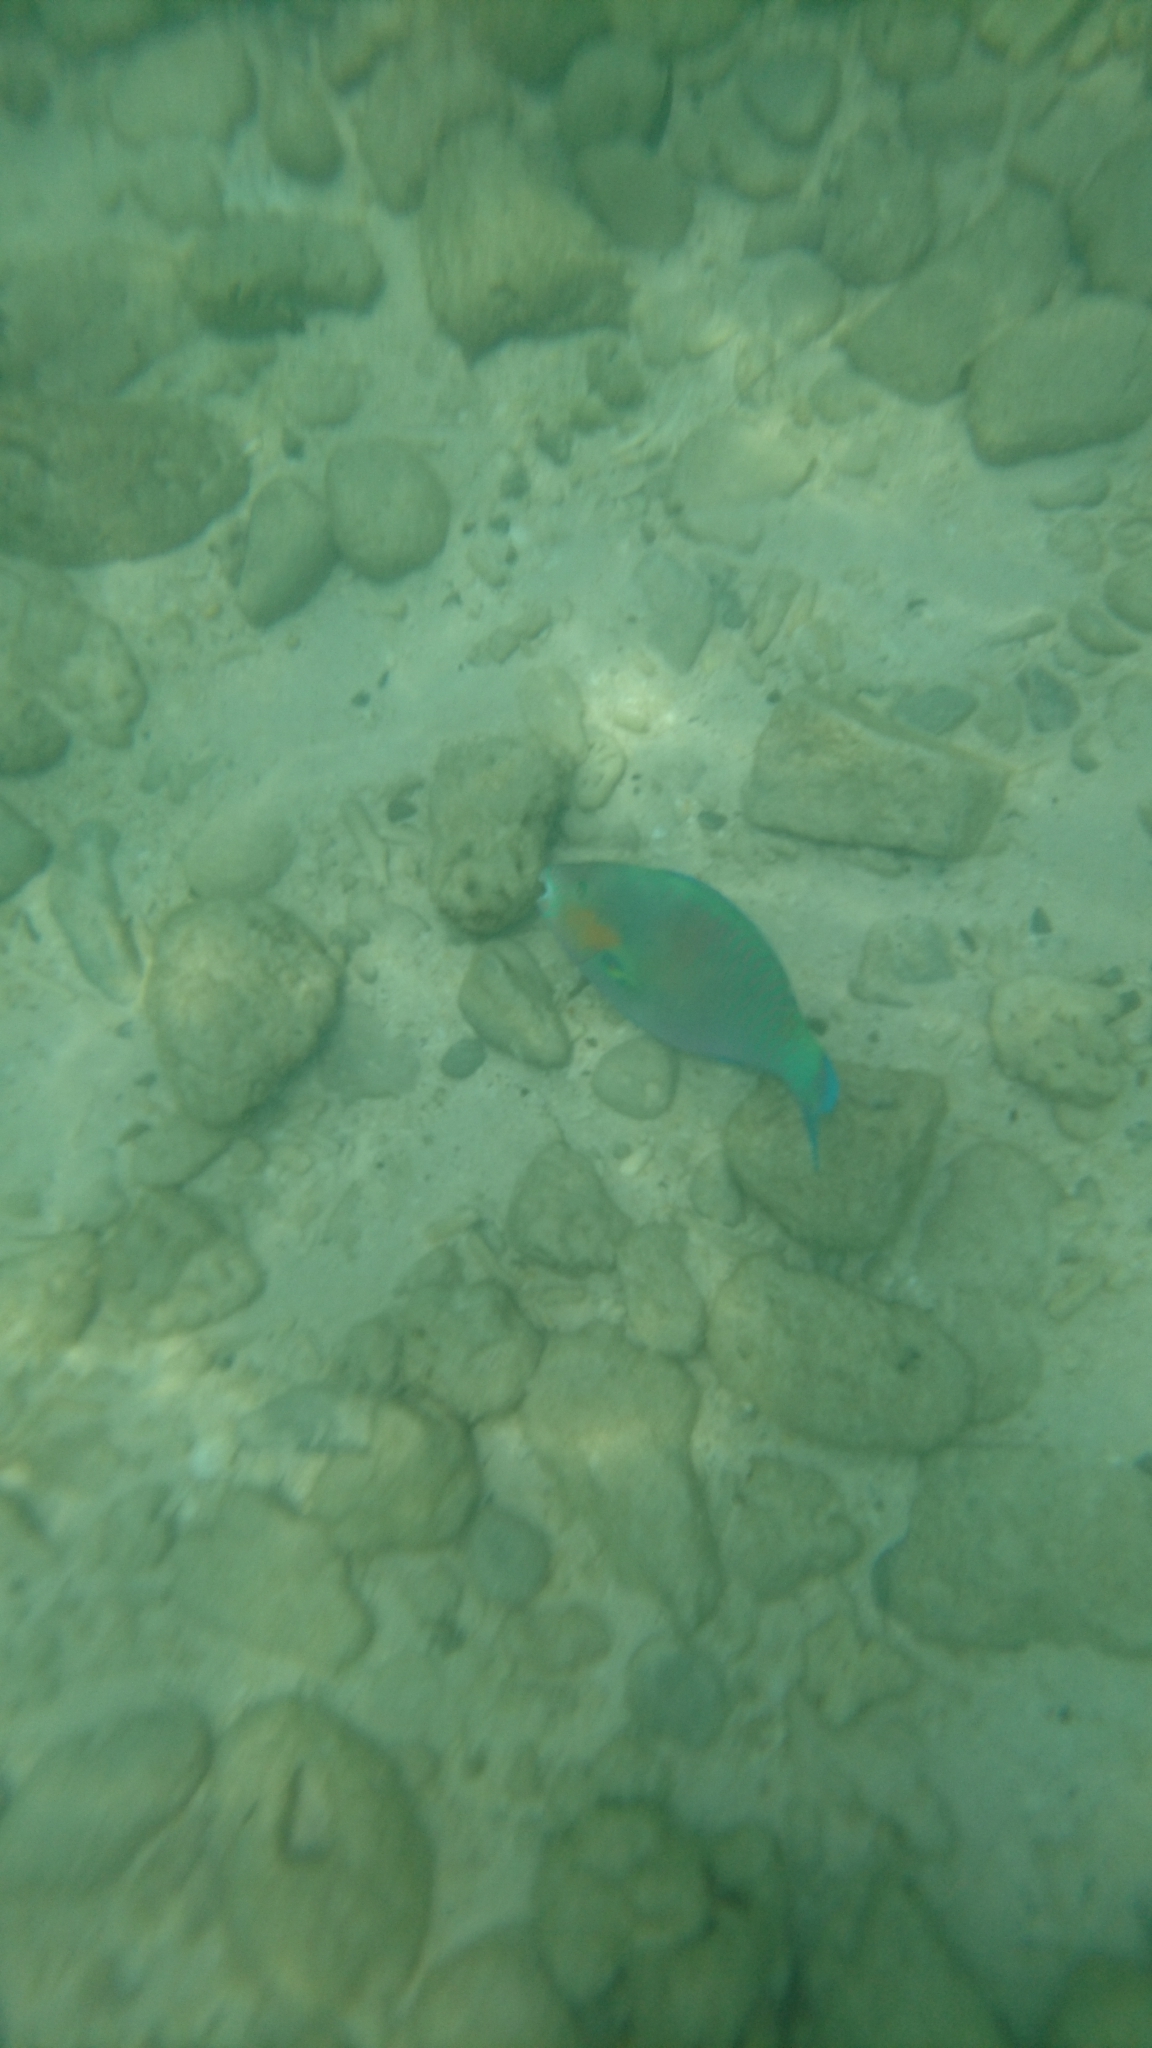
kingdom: Animalia
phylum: Chordata
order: Perciformes
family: Scaridae
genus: Scarus
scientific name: Scarus rivulatus
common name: Surf parrotfish
